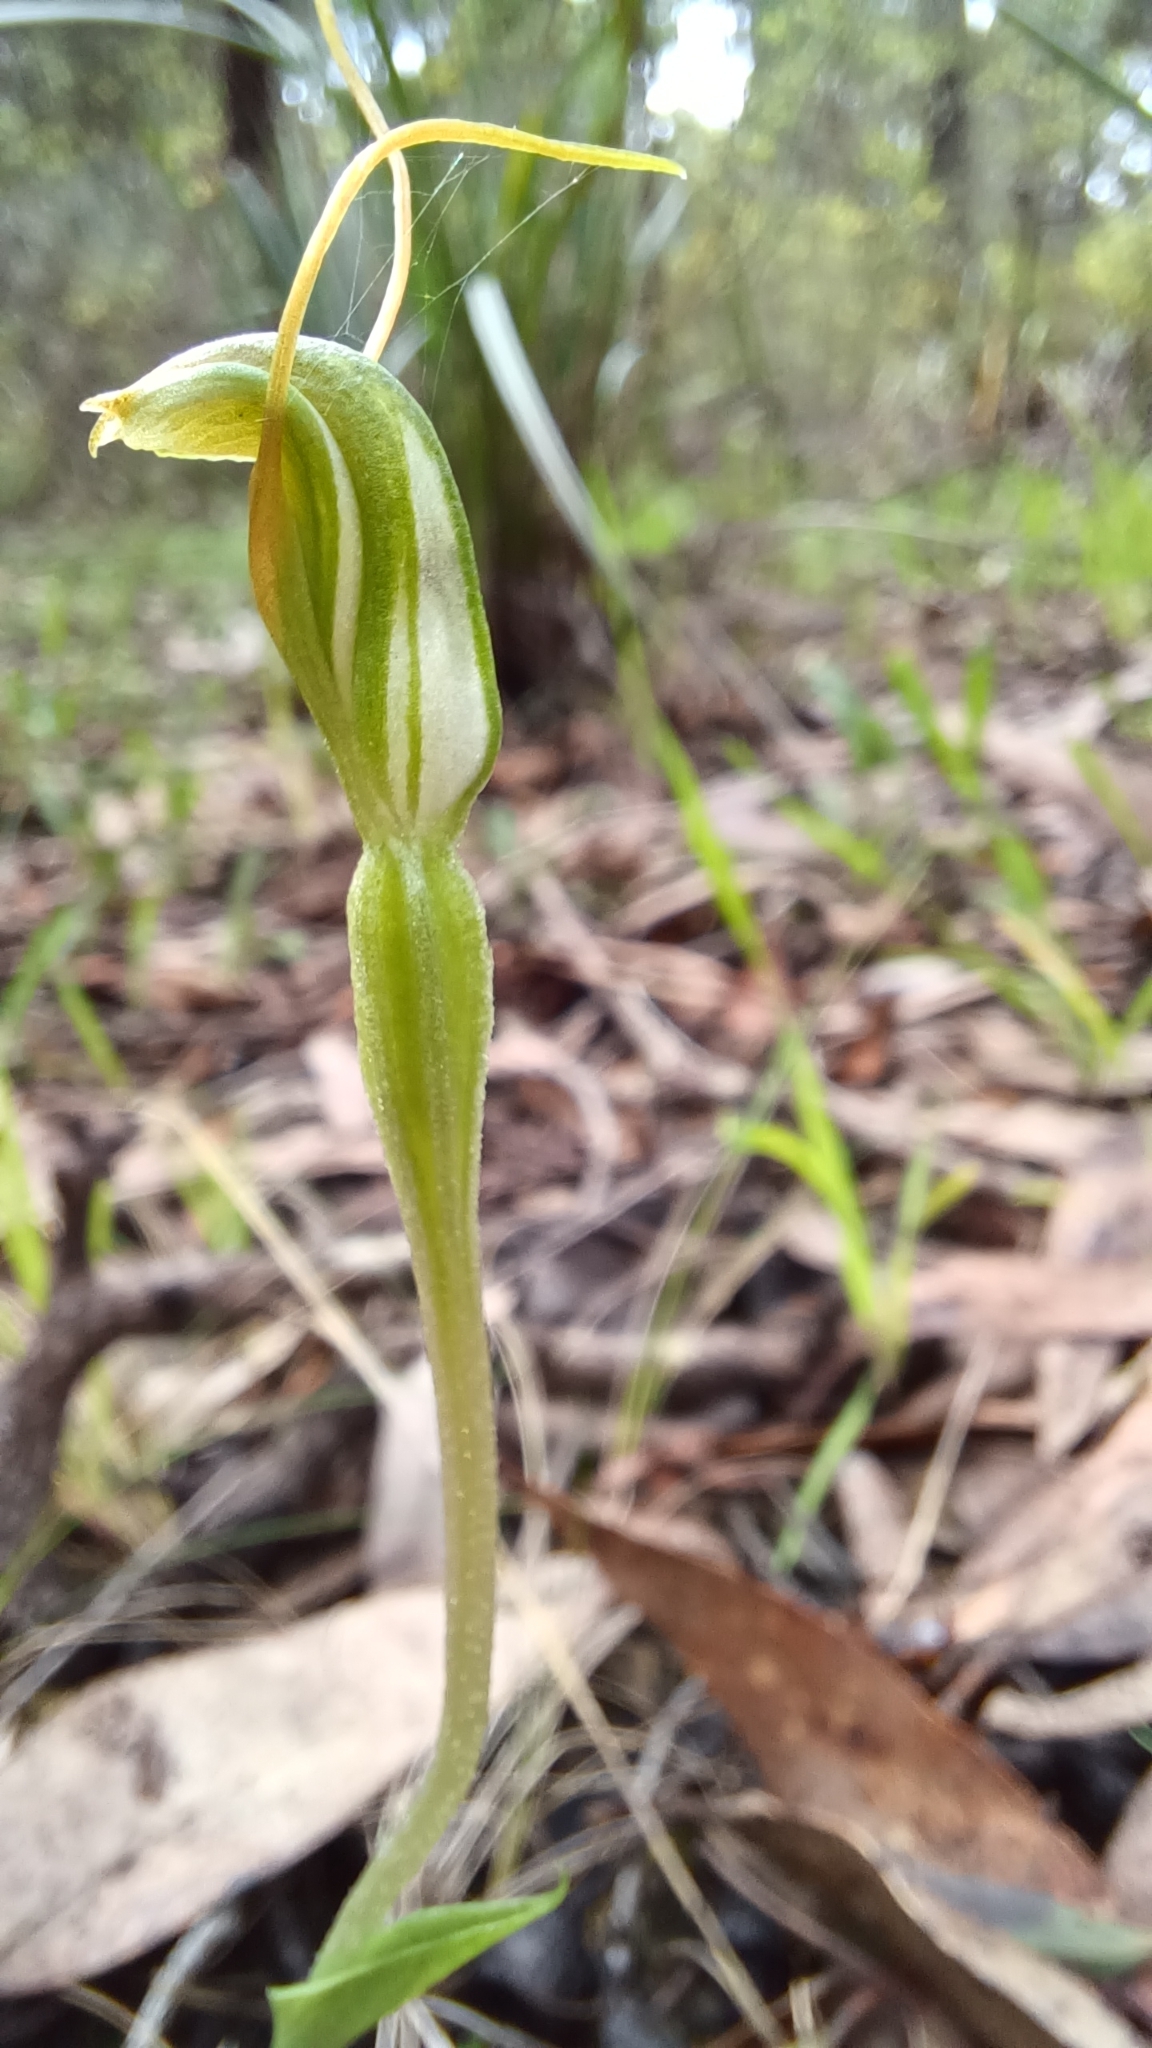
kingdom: Plantae
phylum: Tracheophyta
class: Liliopsida
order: Asparagales
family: Orchidaceae
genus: Pterostylis
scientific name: Pterostylis nana
